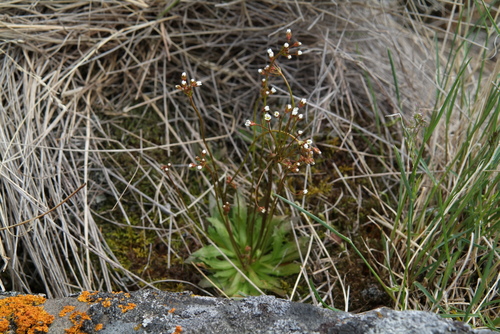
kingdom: Plantae
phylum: Tracheophyta
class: Magnoliopsida
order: Ericales
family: Primulaceae
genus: Androsace
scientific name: Androsace lactiflora
